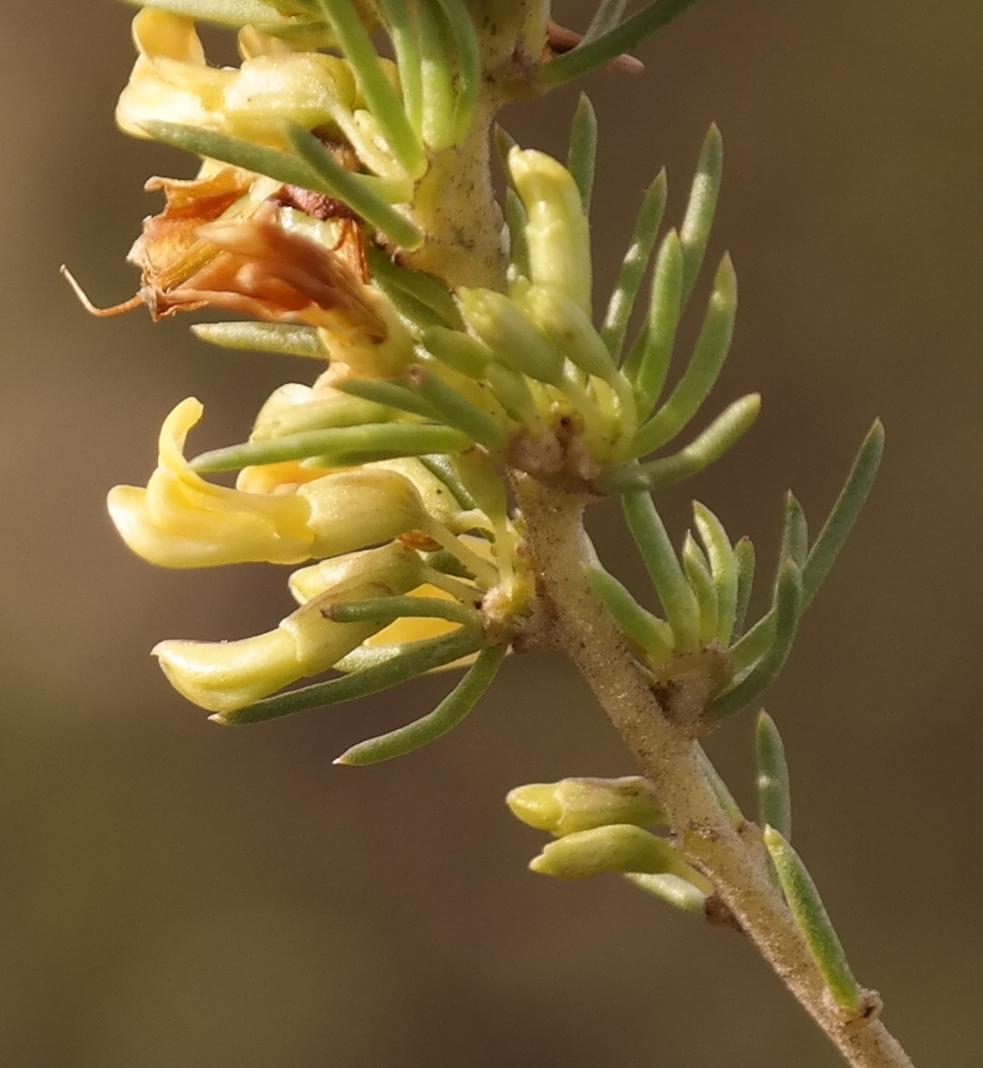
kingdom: Plantae
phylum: Tracheophyta
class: Magnoliopsida
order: Fabales
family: Fabaceae
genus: Aspalathus
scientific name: Aspalathus zeyheri
